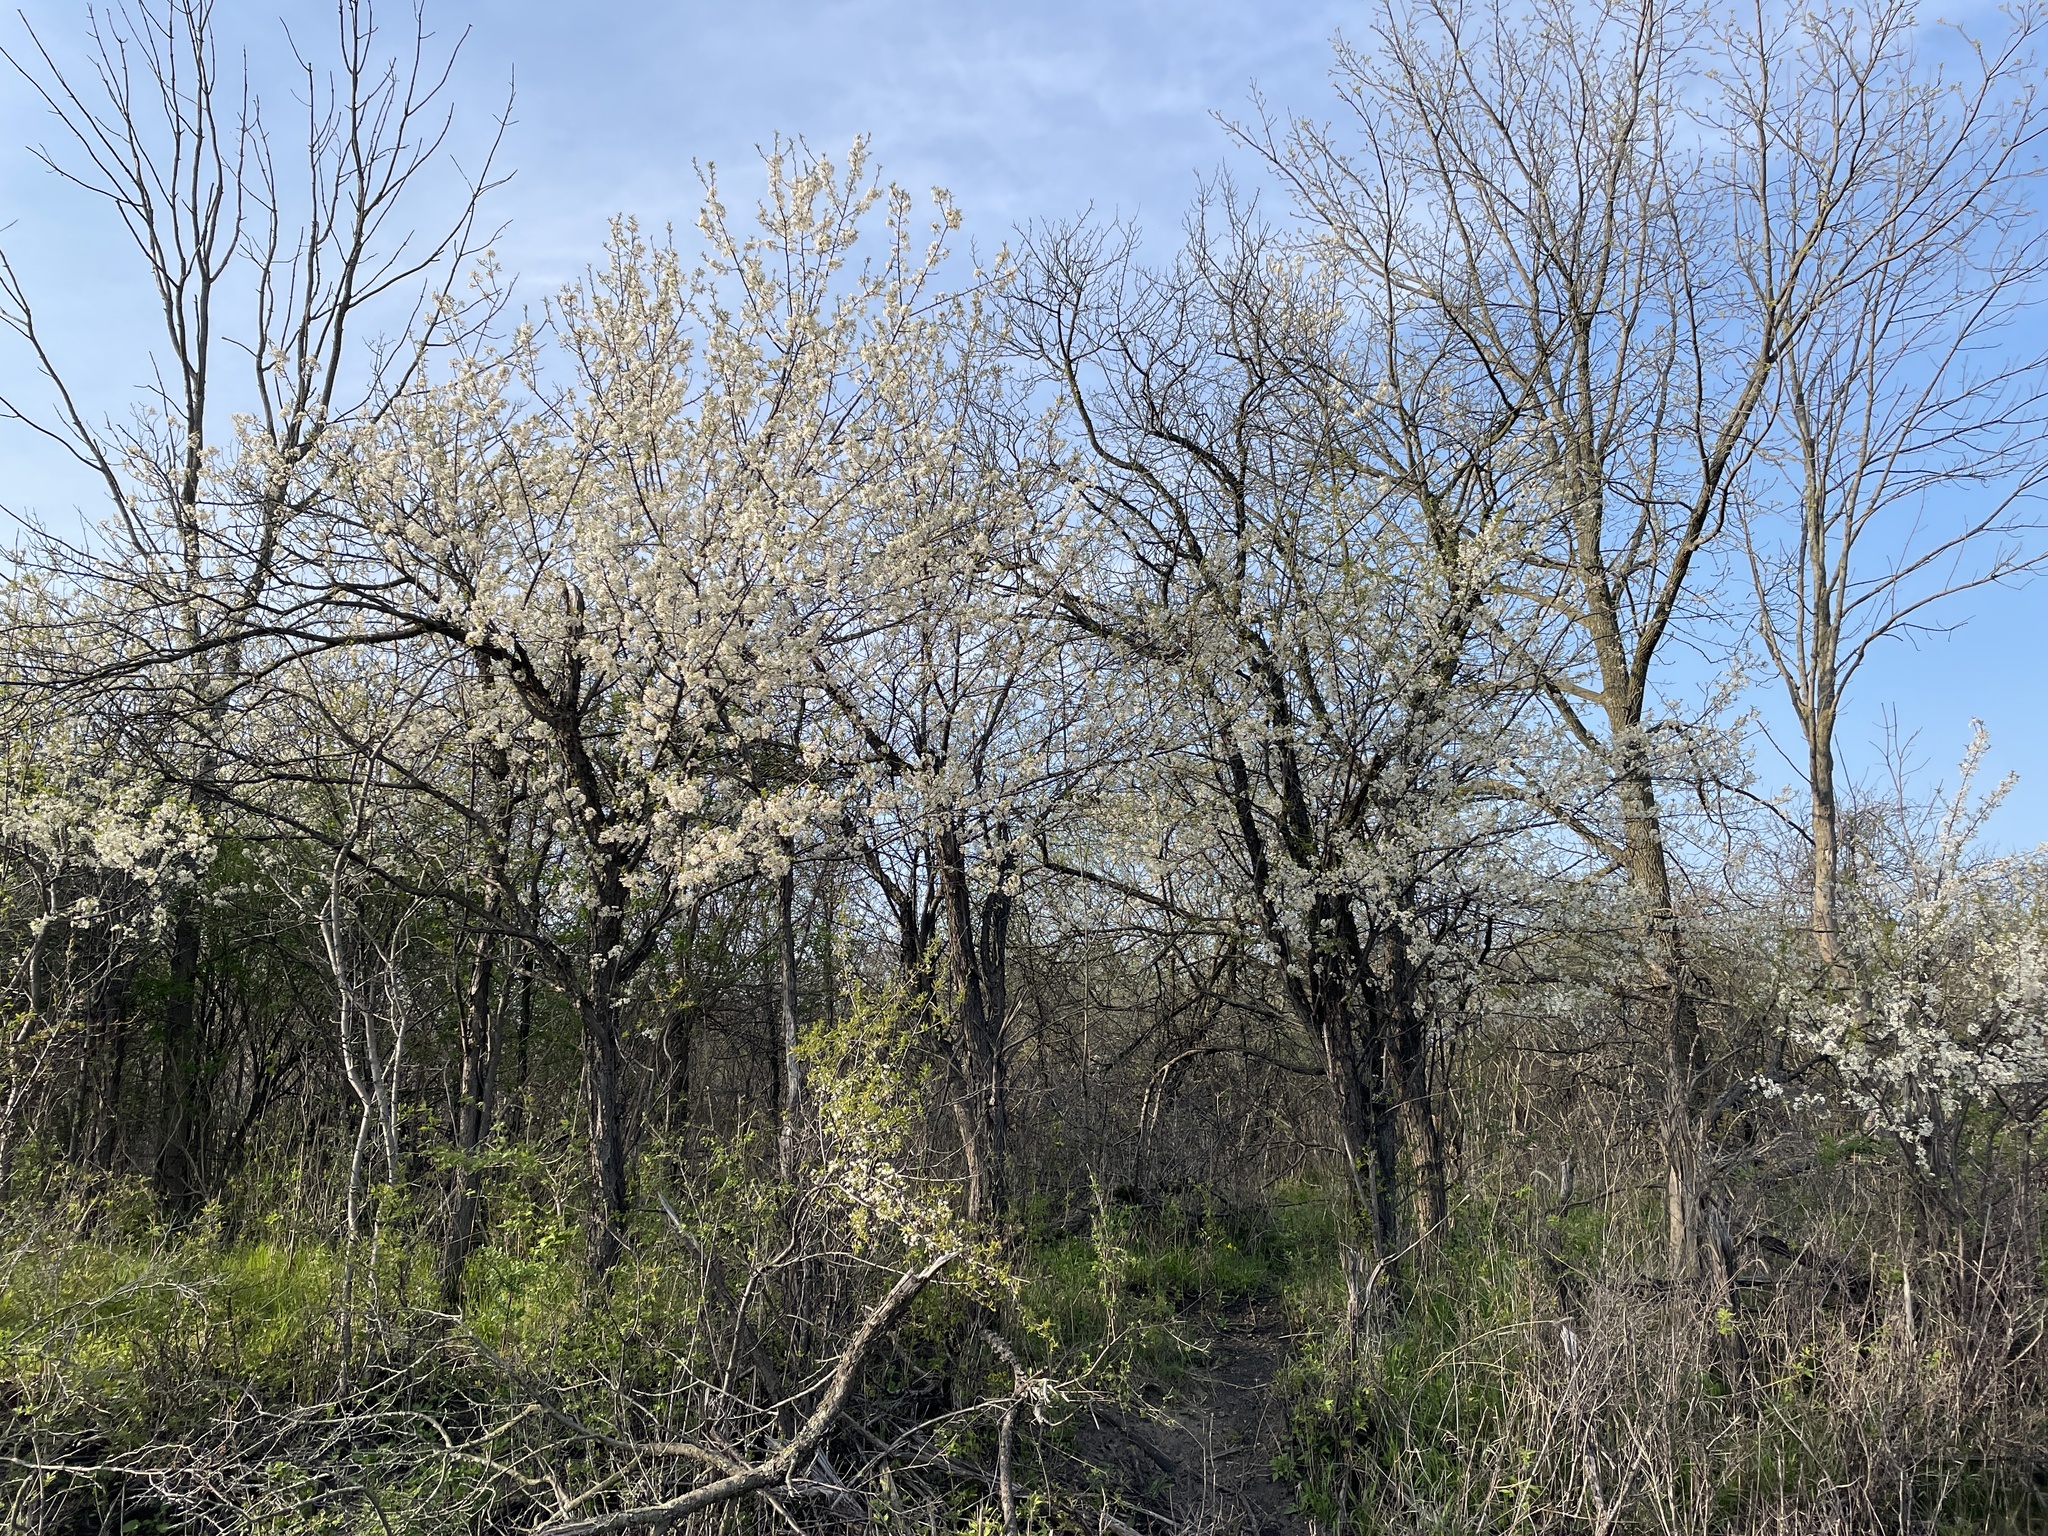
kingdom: Plantae
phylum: Tracheophyta
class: Magnoliopsida
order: Rosales
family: Rosaceae
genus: Prunus
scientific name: Prunus americana
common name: American plum
